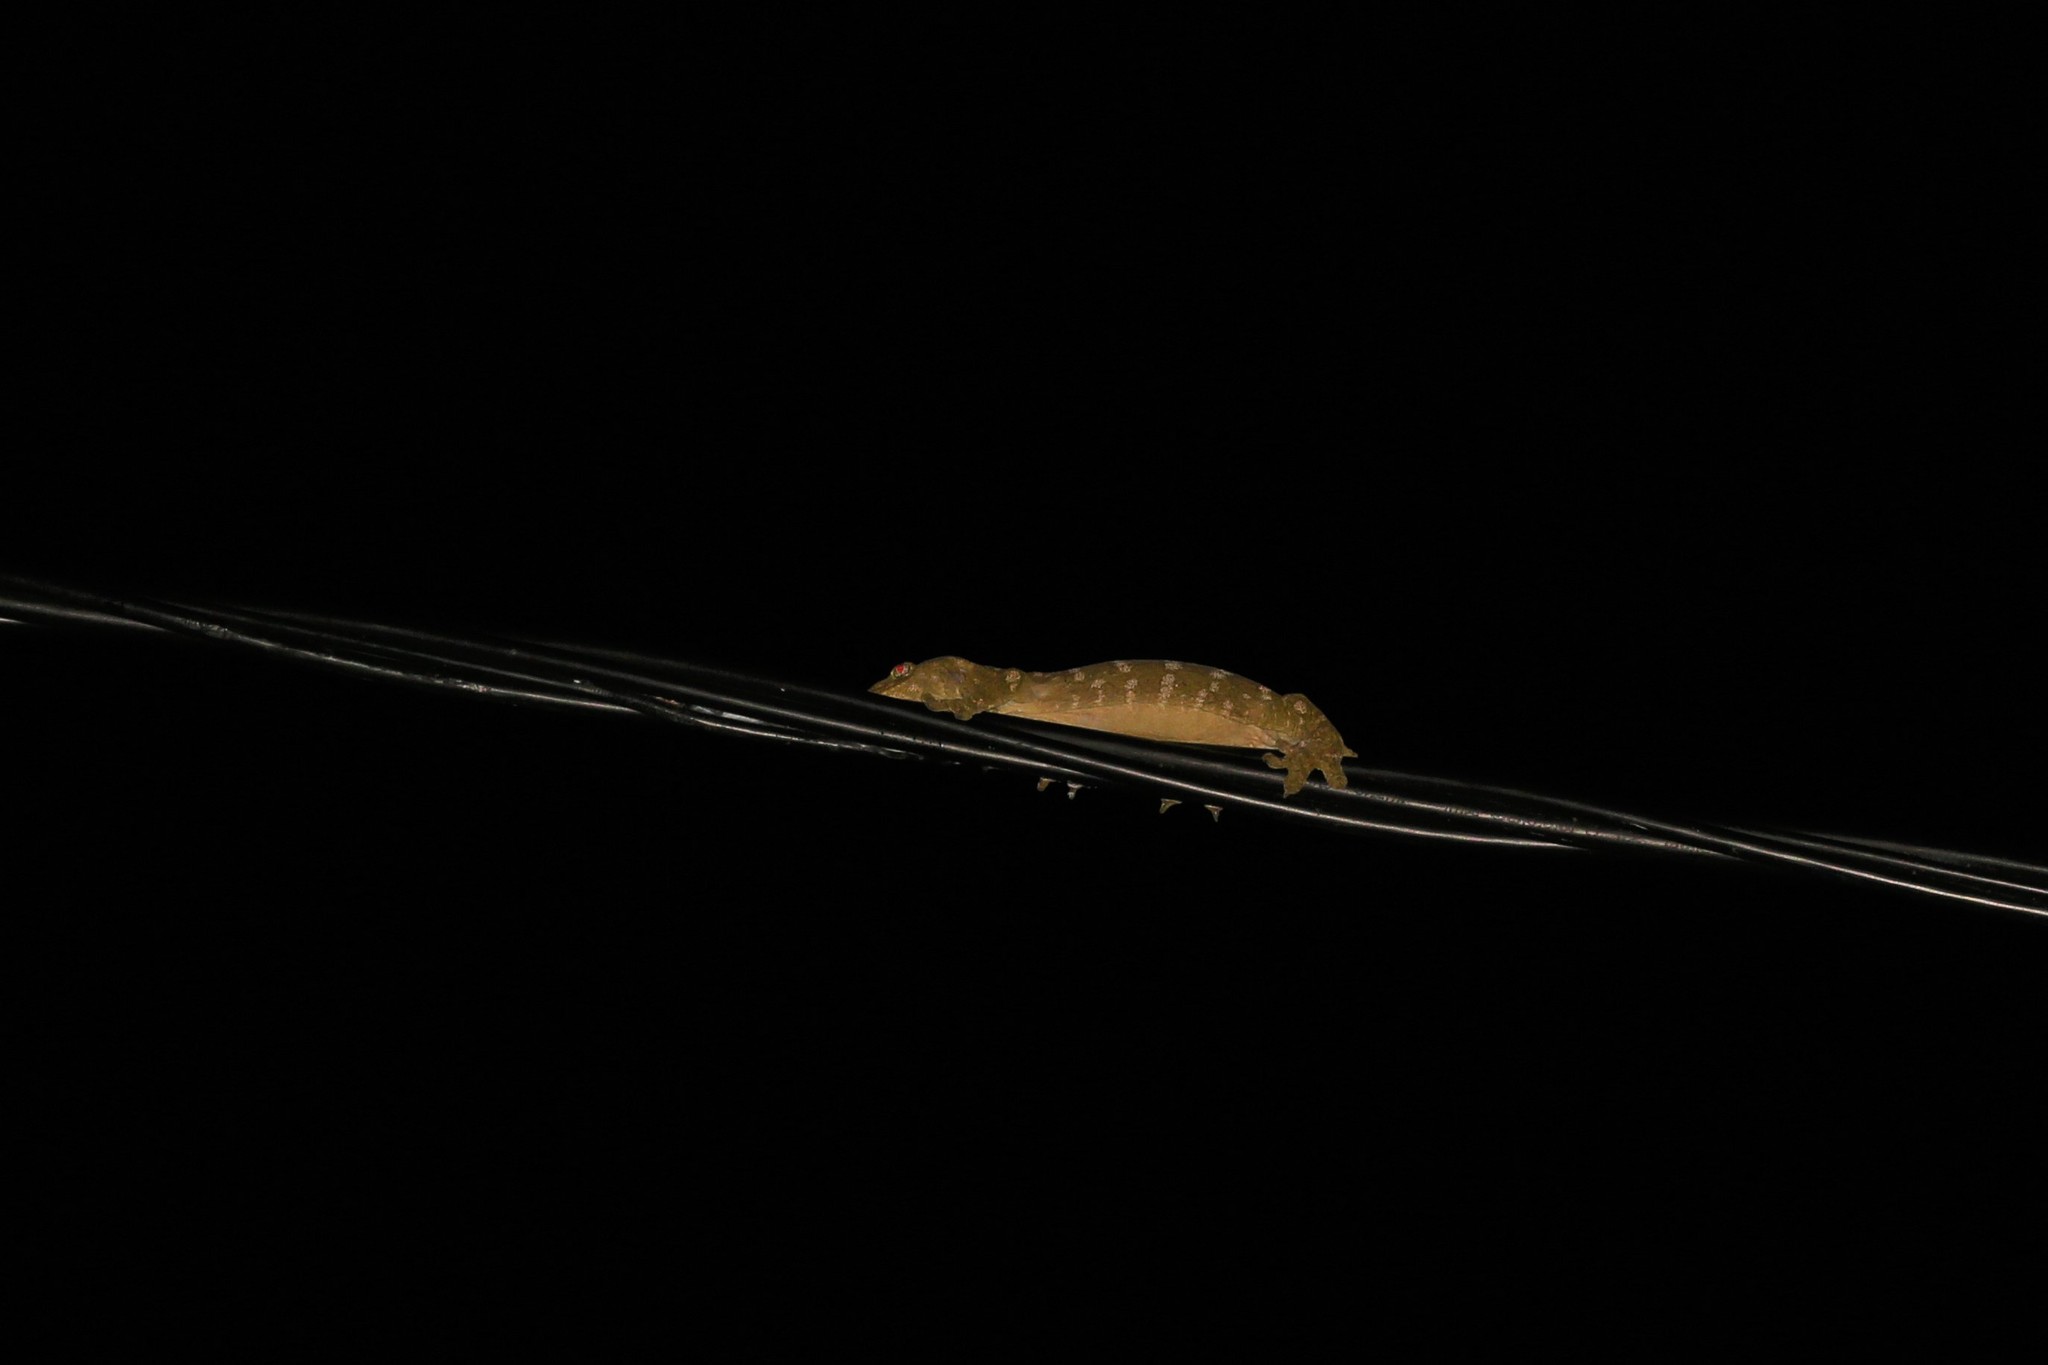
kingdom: Animalia
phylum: Chordata
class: Squamata
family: Diplodactylidae
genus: Rhacodactylus
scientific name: Rhacodactylus leachianus
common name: New caledonia giant gecko
